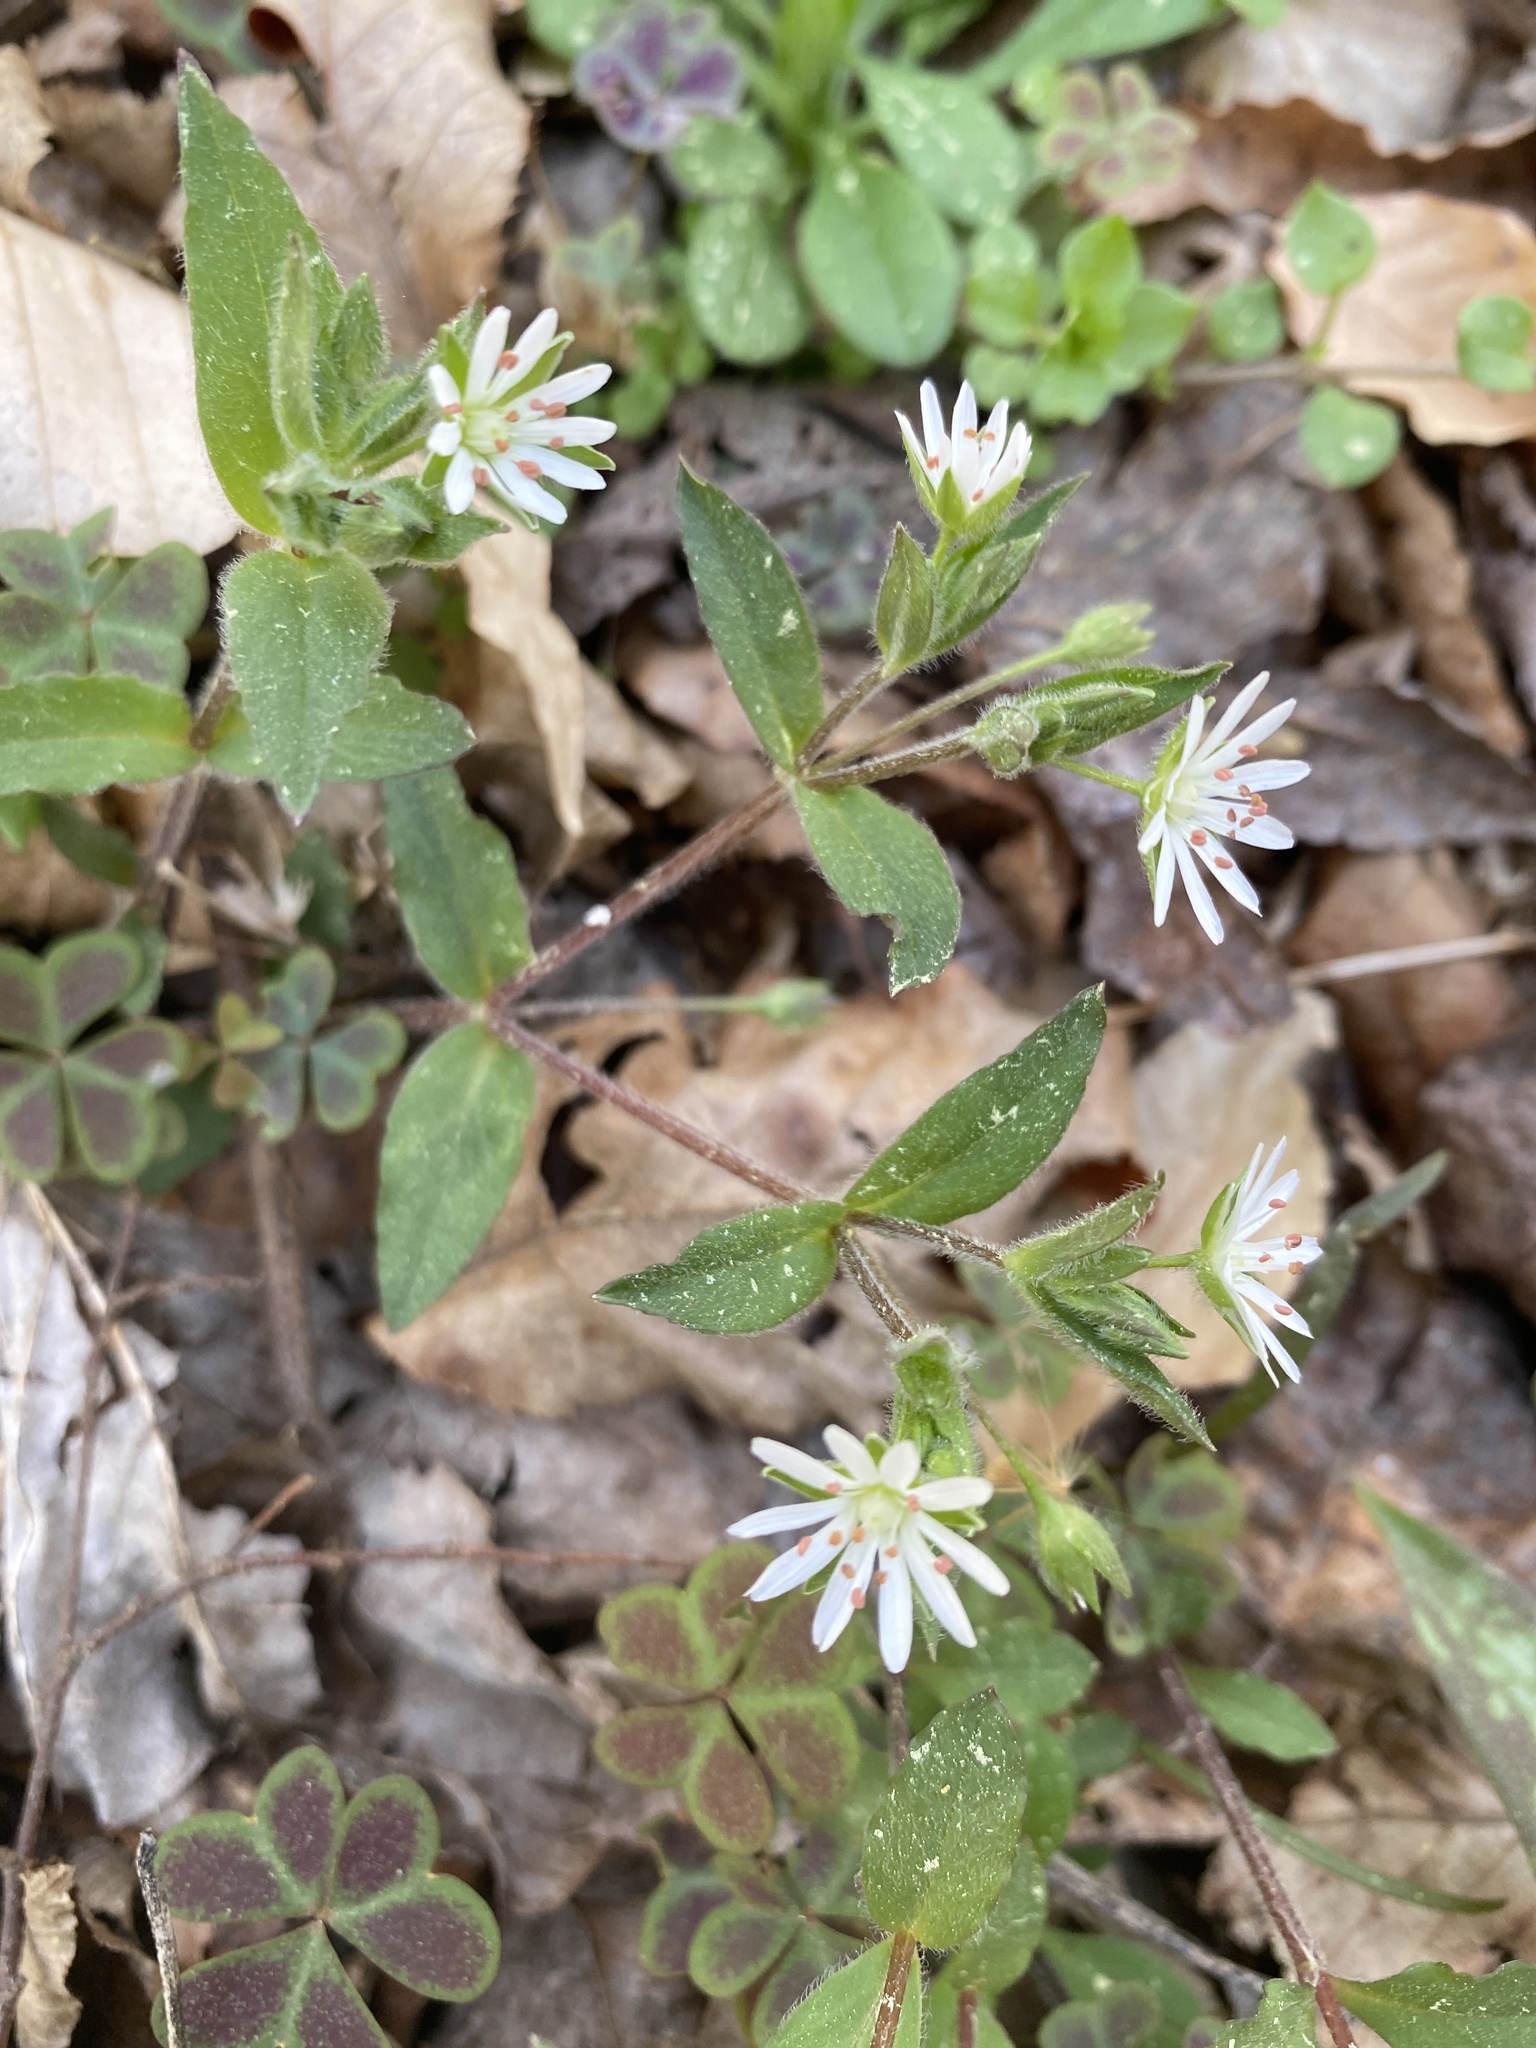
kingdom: Plantae
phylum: Tracheophyta
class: Magnoliopsida
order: Caryophyllales
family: Caryophyllaceae
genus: Stellaria
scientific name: Stellaria pubera
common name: Star chickweed
